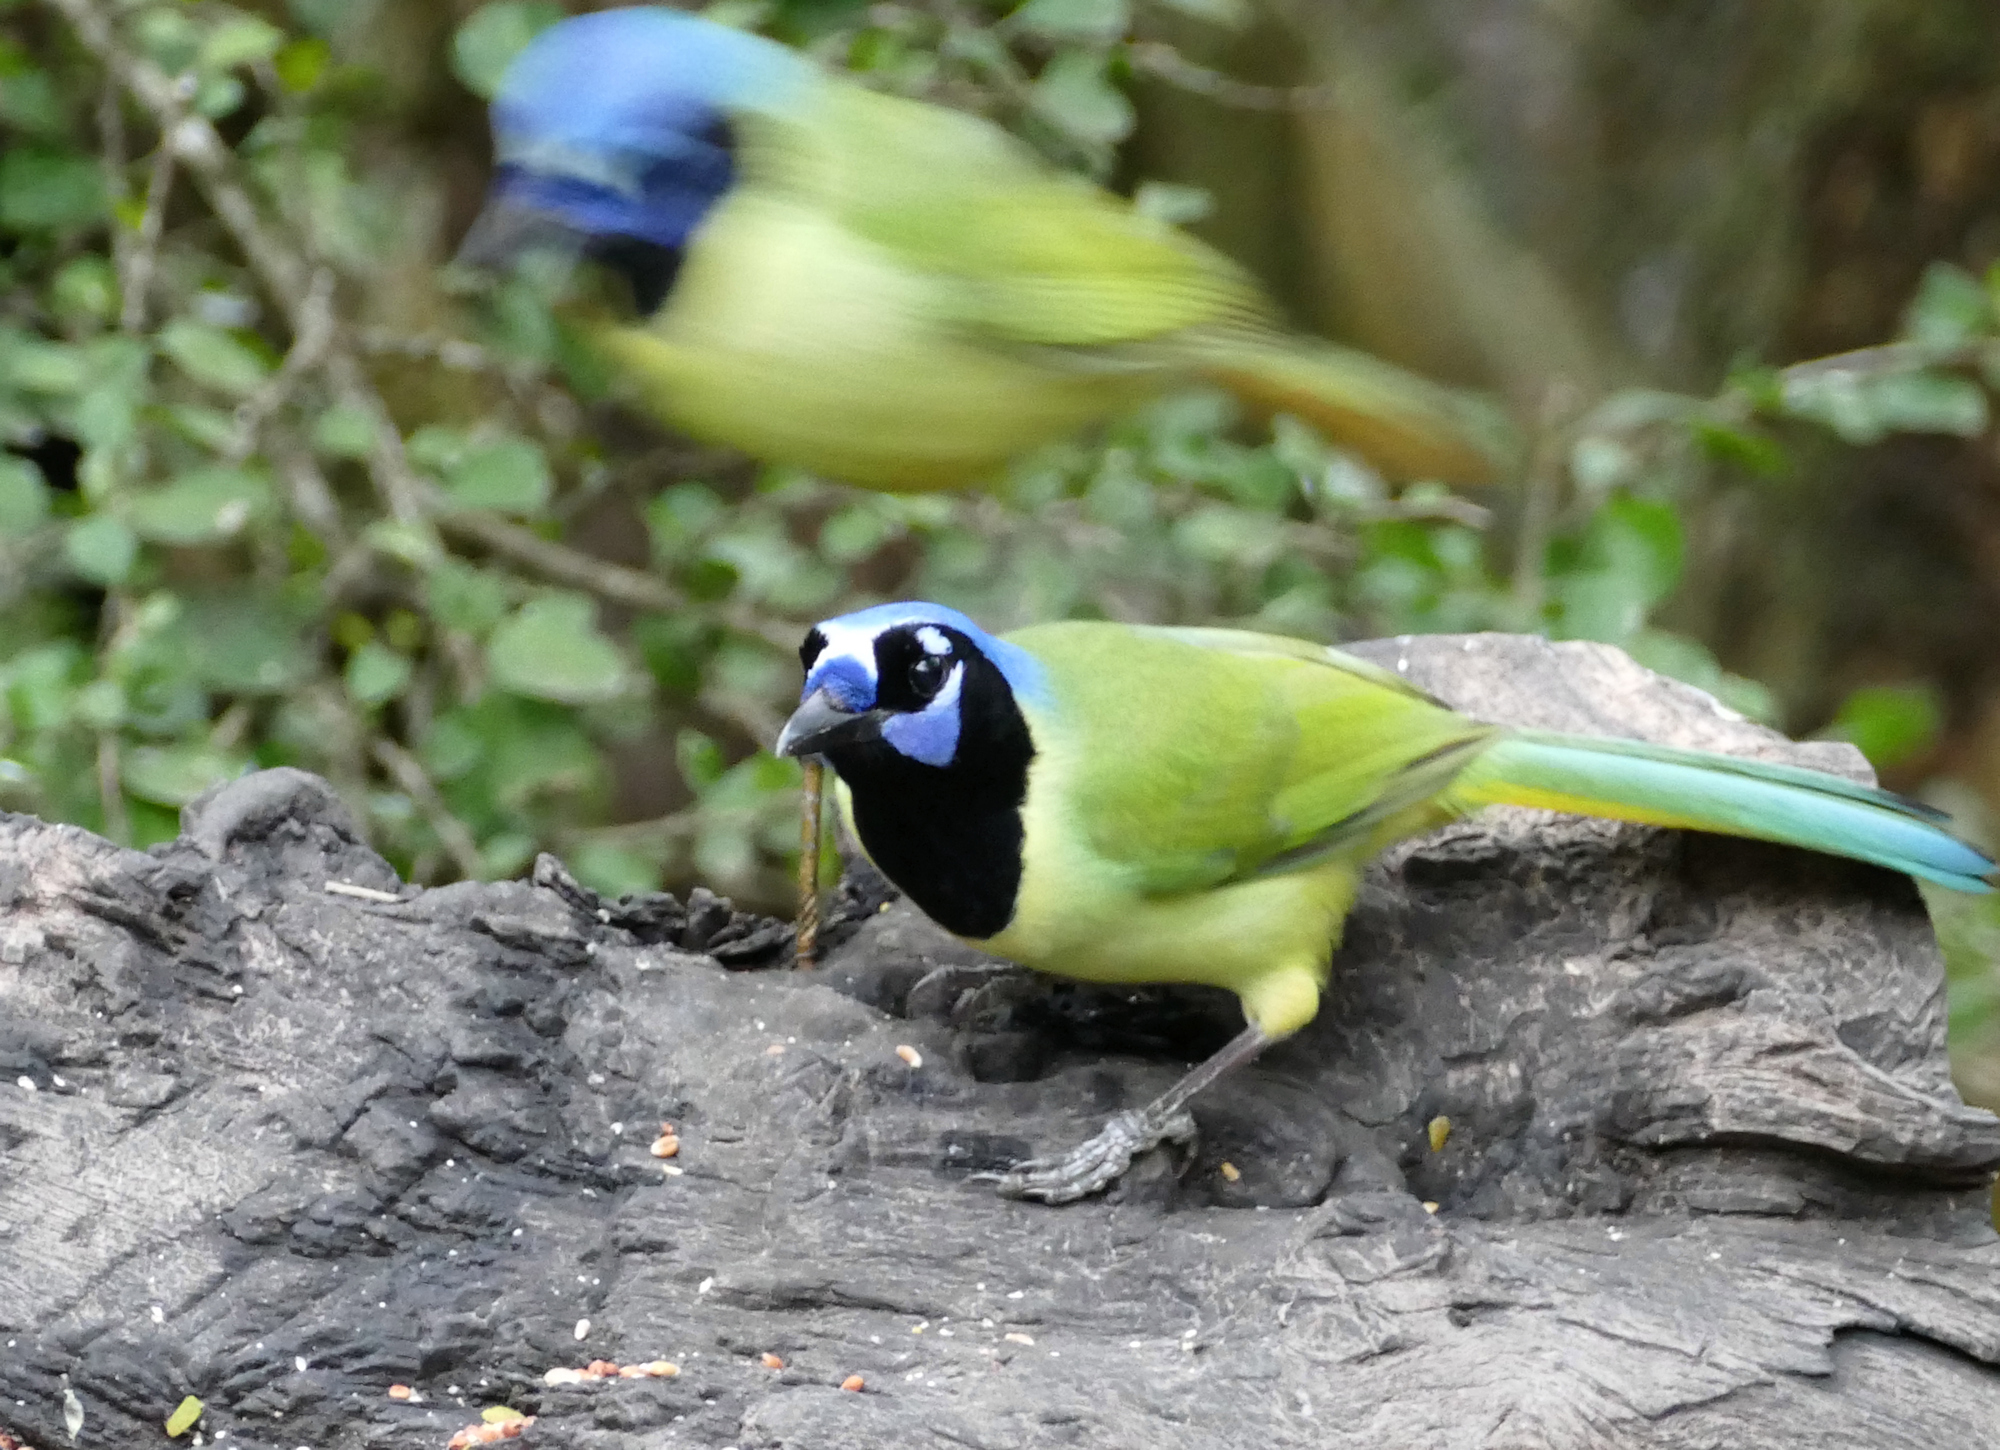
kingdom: Animalia
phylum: Chordata
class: Aves
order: Passeriformes
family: Corvidae
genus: Cyanocorax
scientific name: Cyanocorax yncas
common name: Green jay
